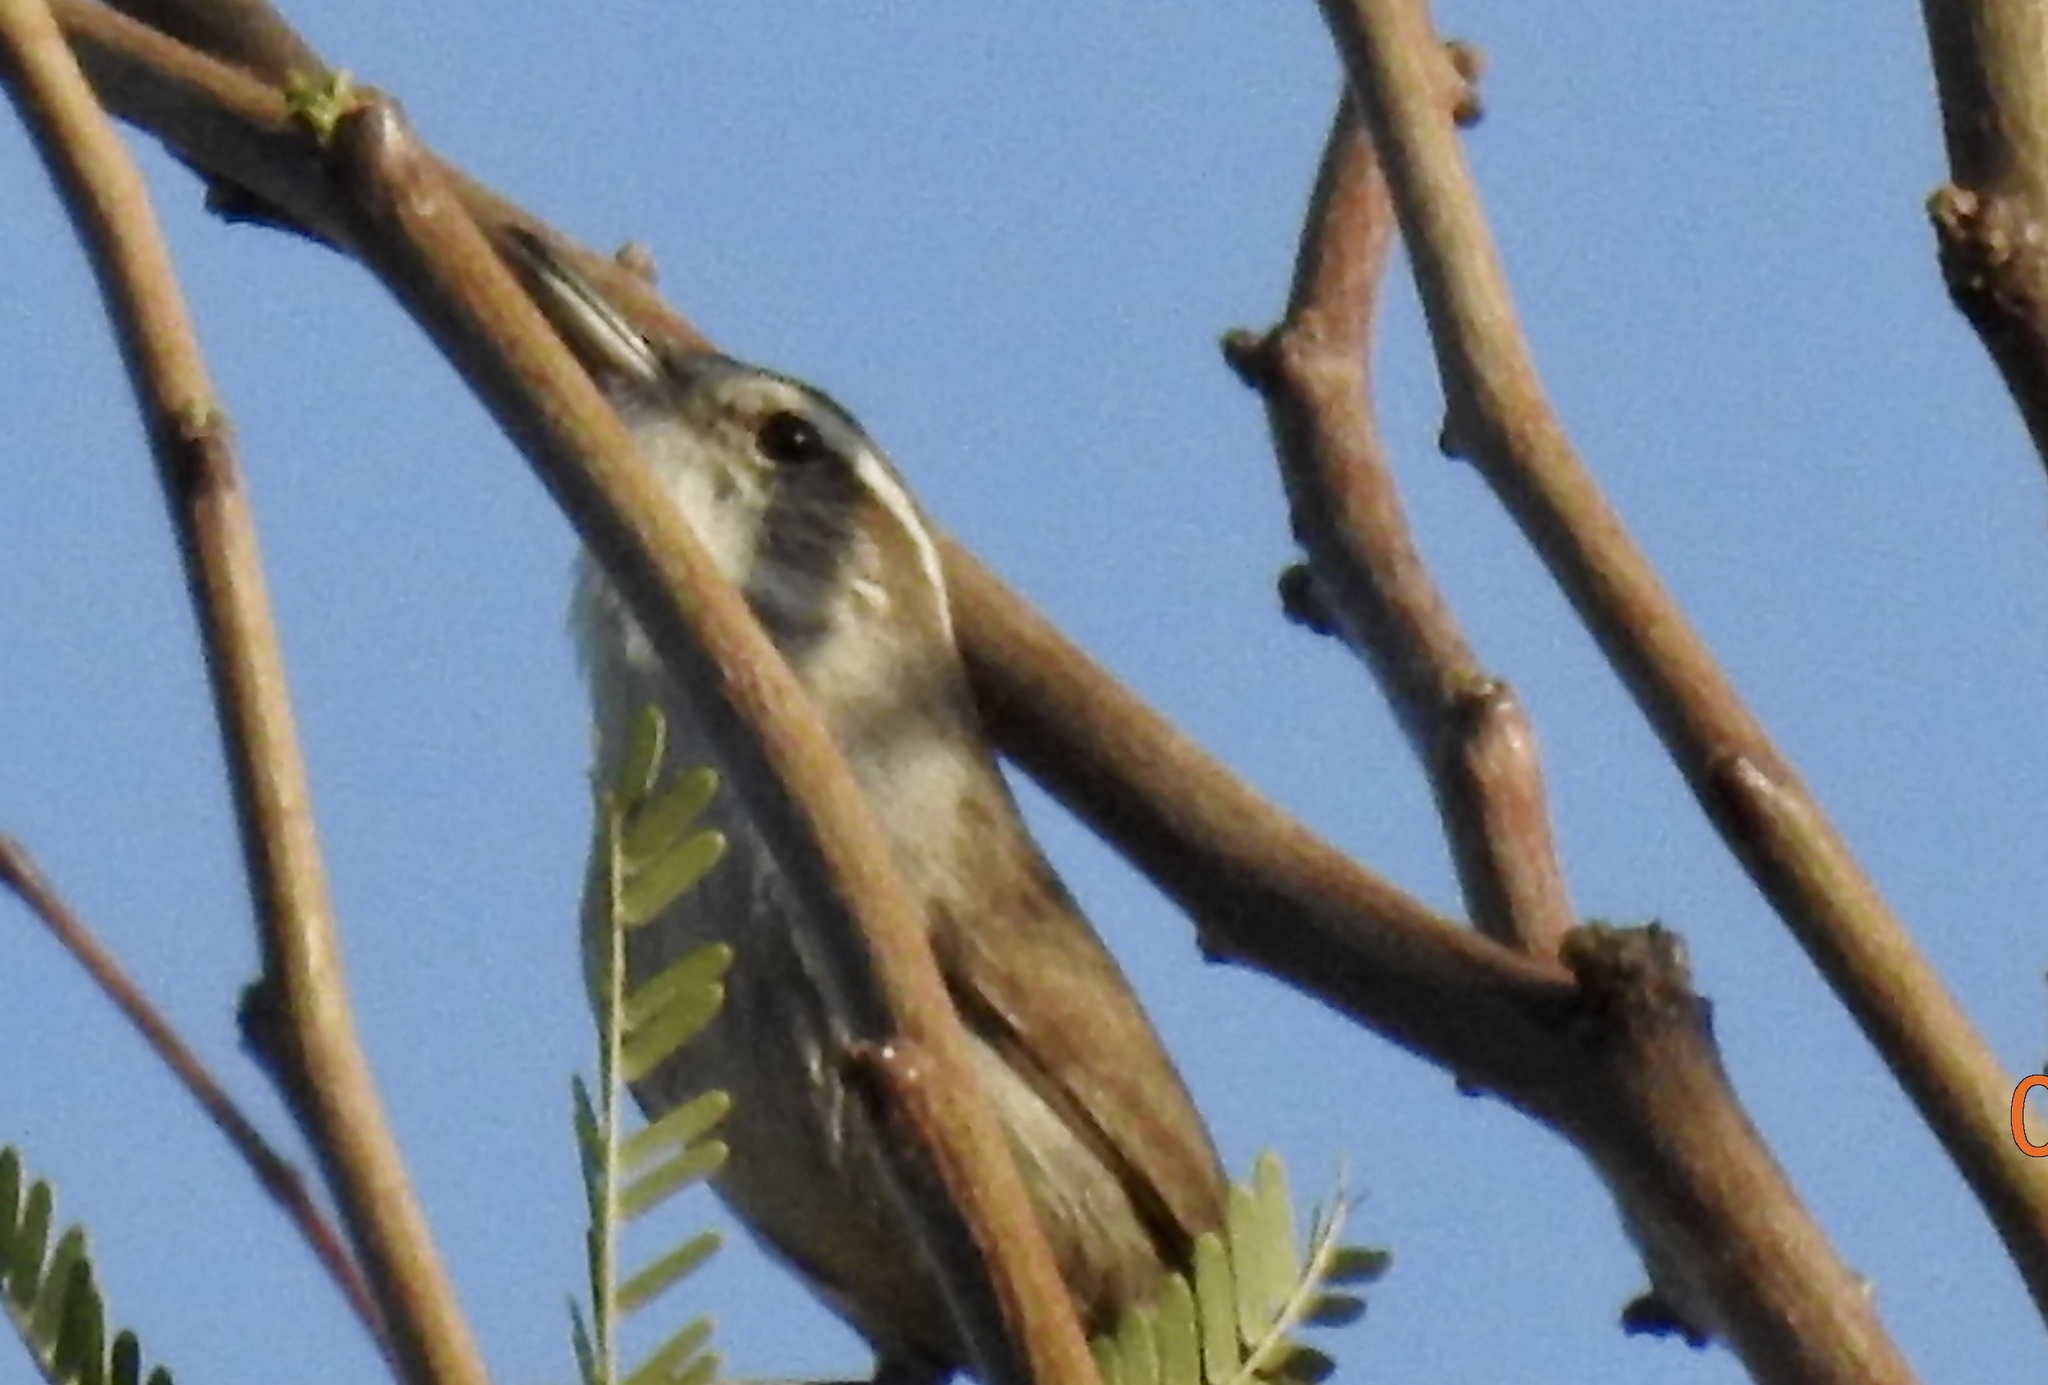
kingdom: Animalia
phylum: Chordata
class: Aves
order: Passeriformes
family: Troglodytidae
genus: Thryomanes
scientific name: Thryomanes bewickii
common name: Bewick's wren
